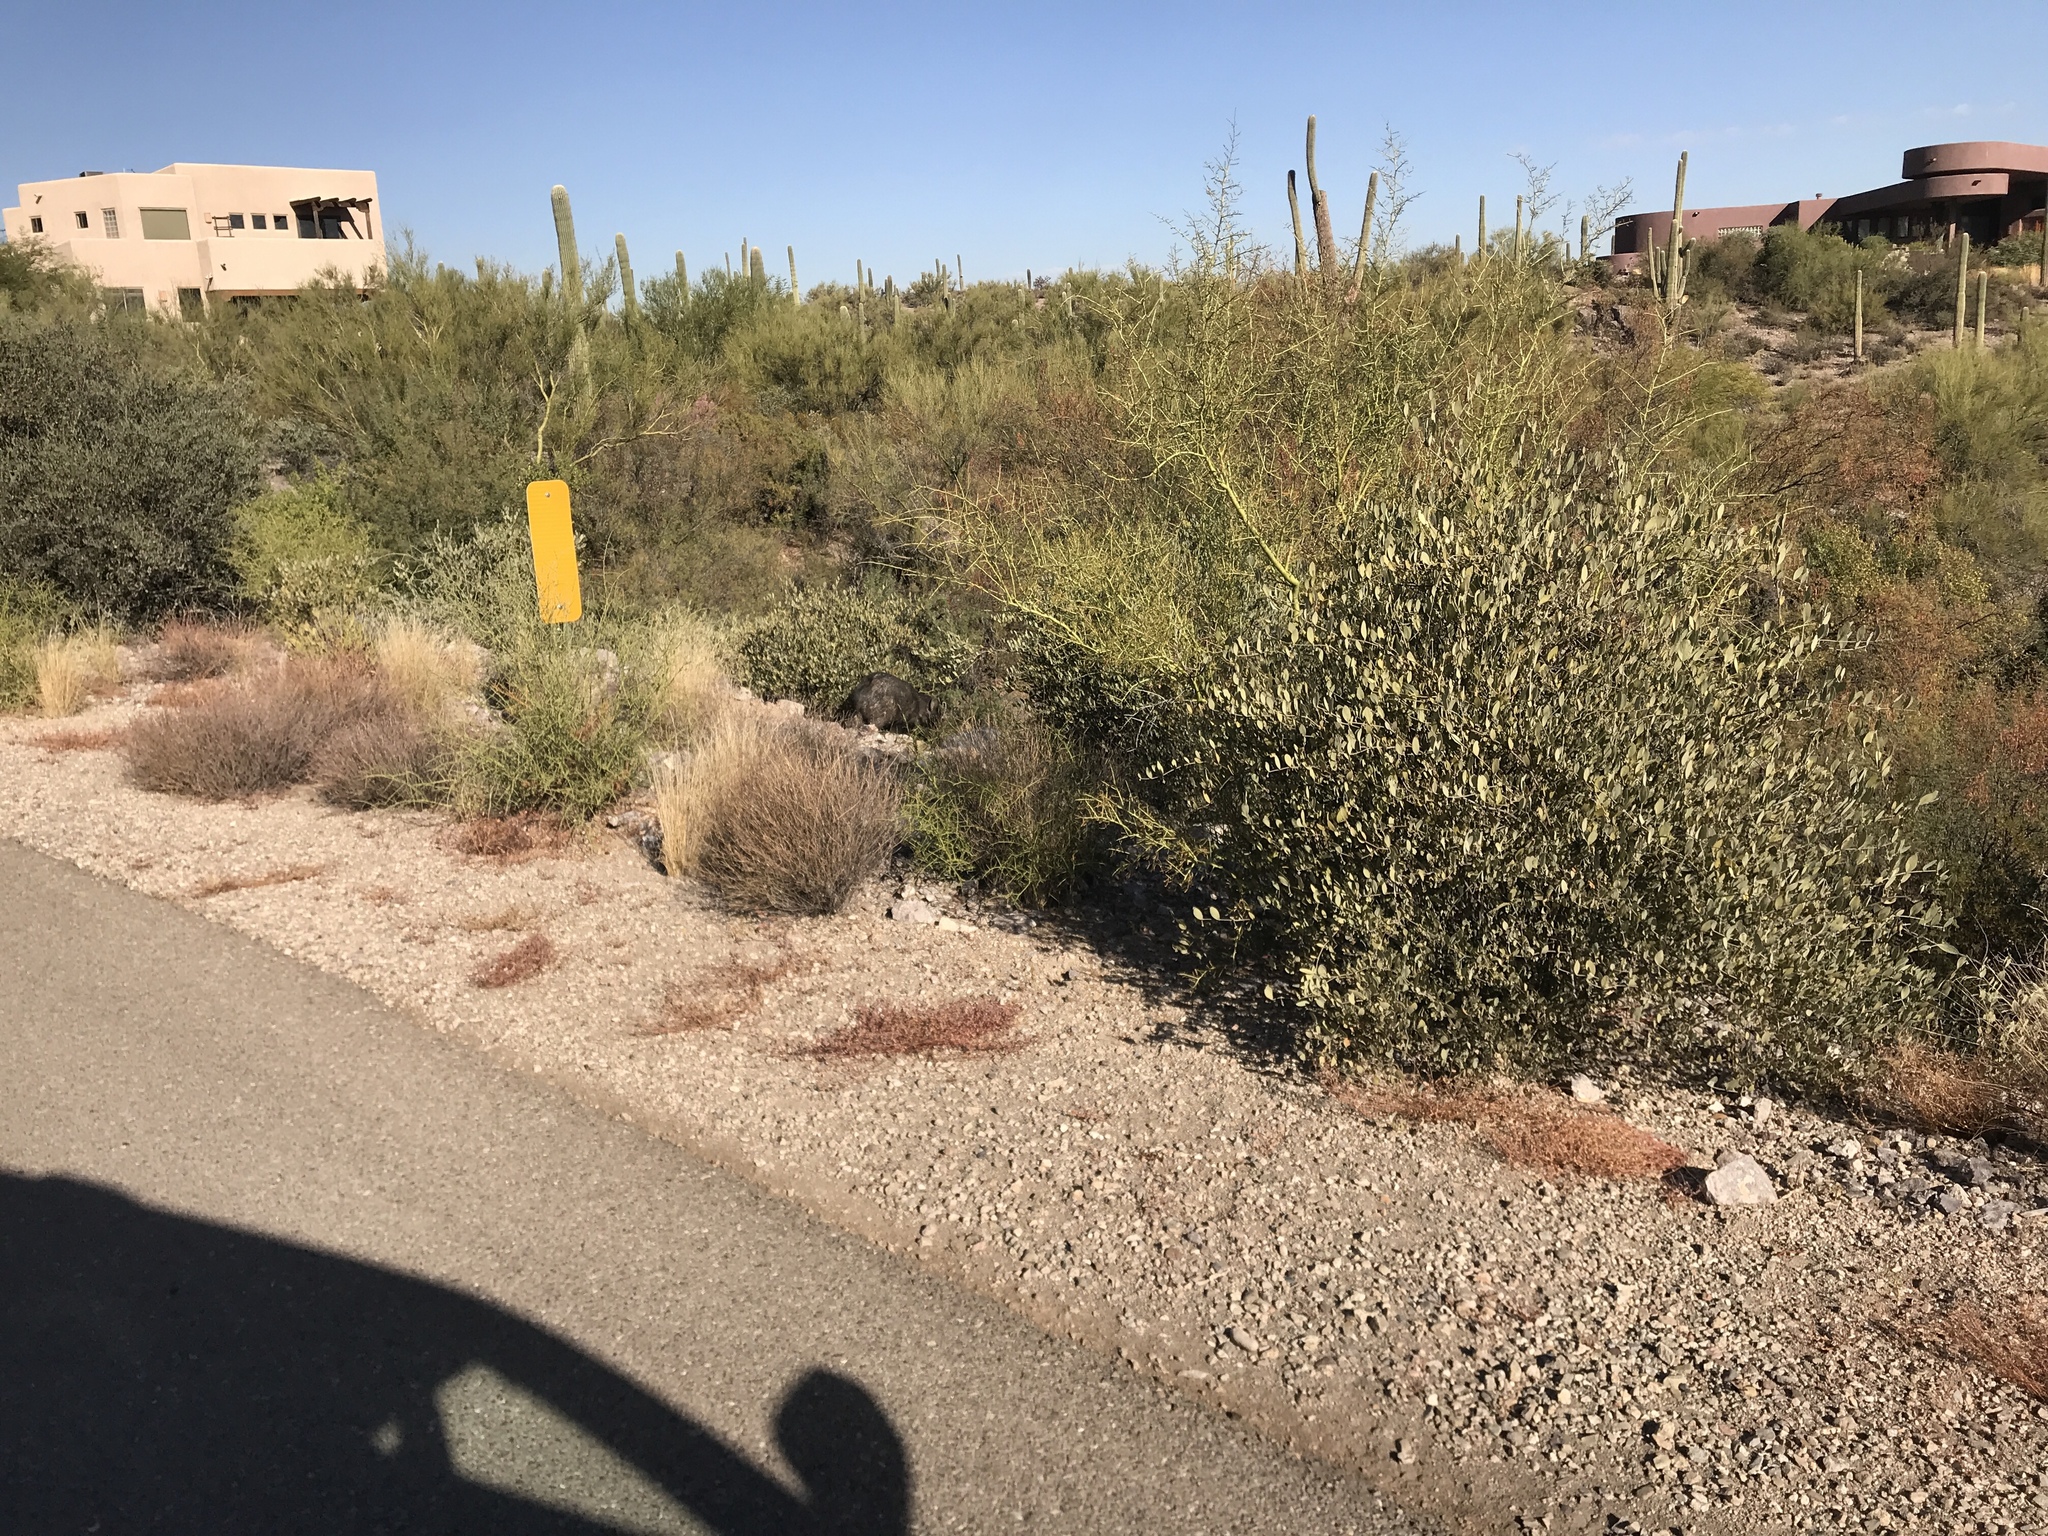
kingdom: Animalia
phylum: Chordata
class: Mammalia
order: Artiodactyla
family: Tayassuidae
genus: Pecari
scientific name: Pecari tajacu
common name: Collared peccary
